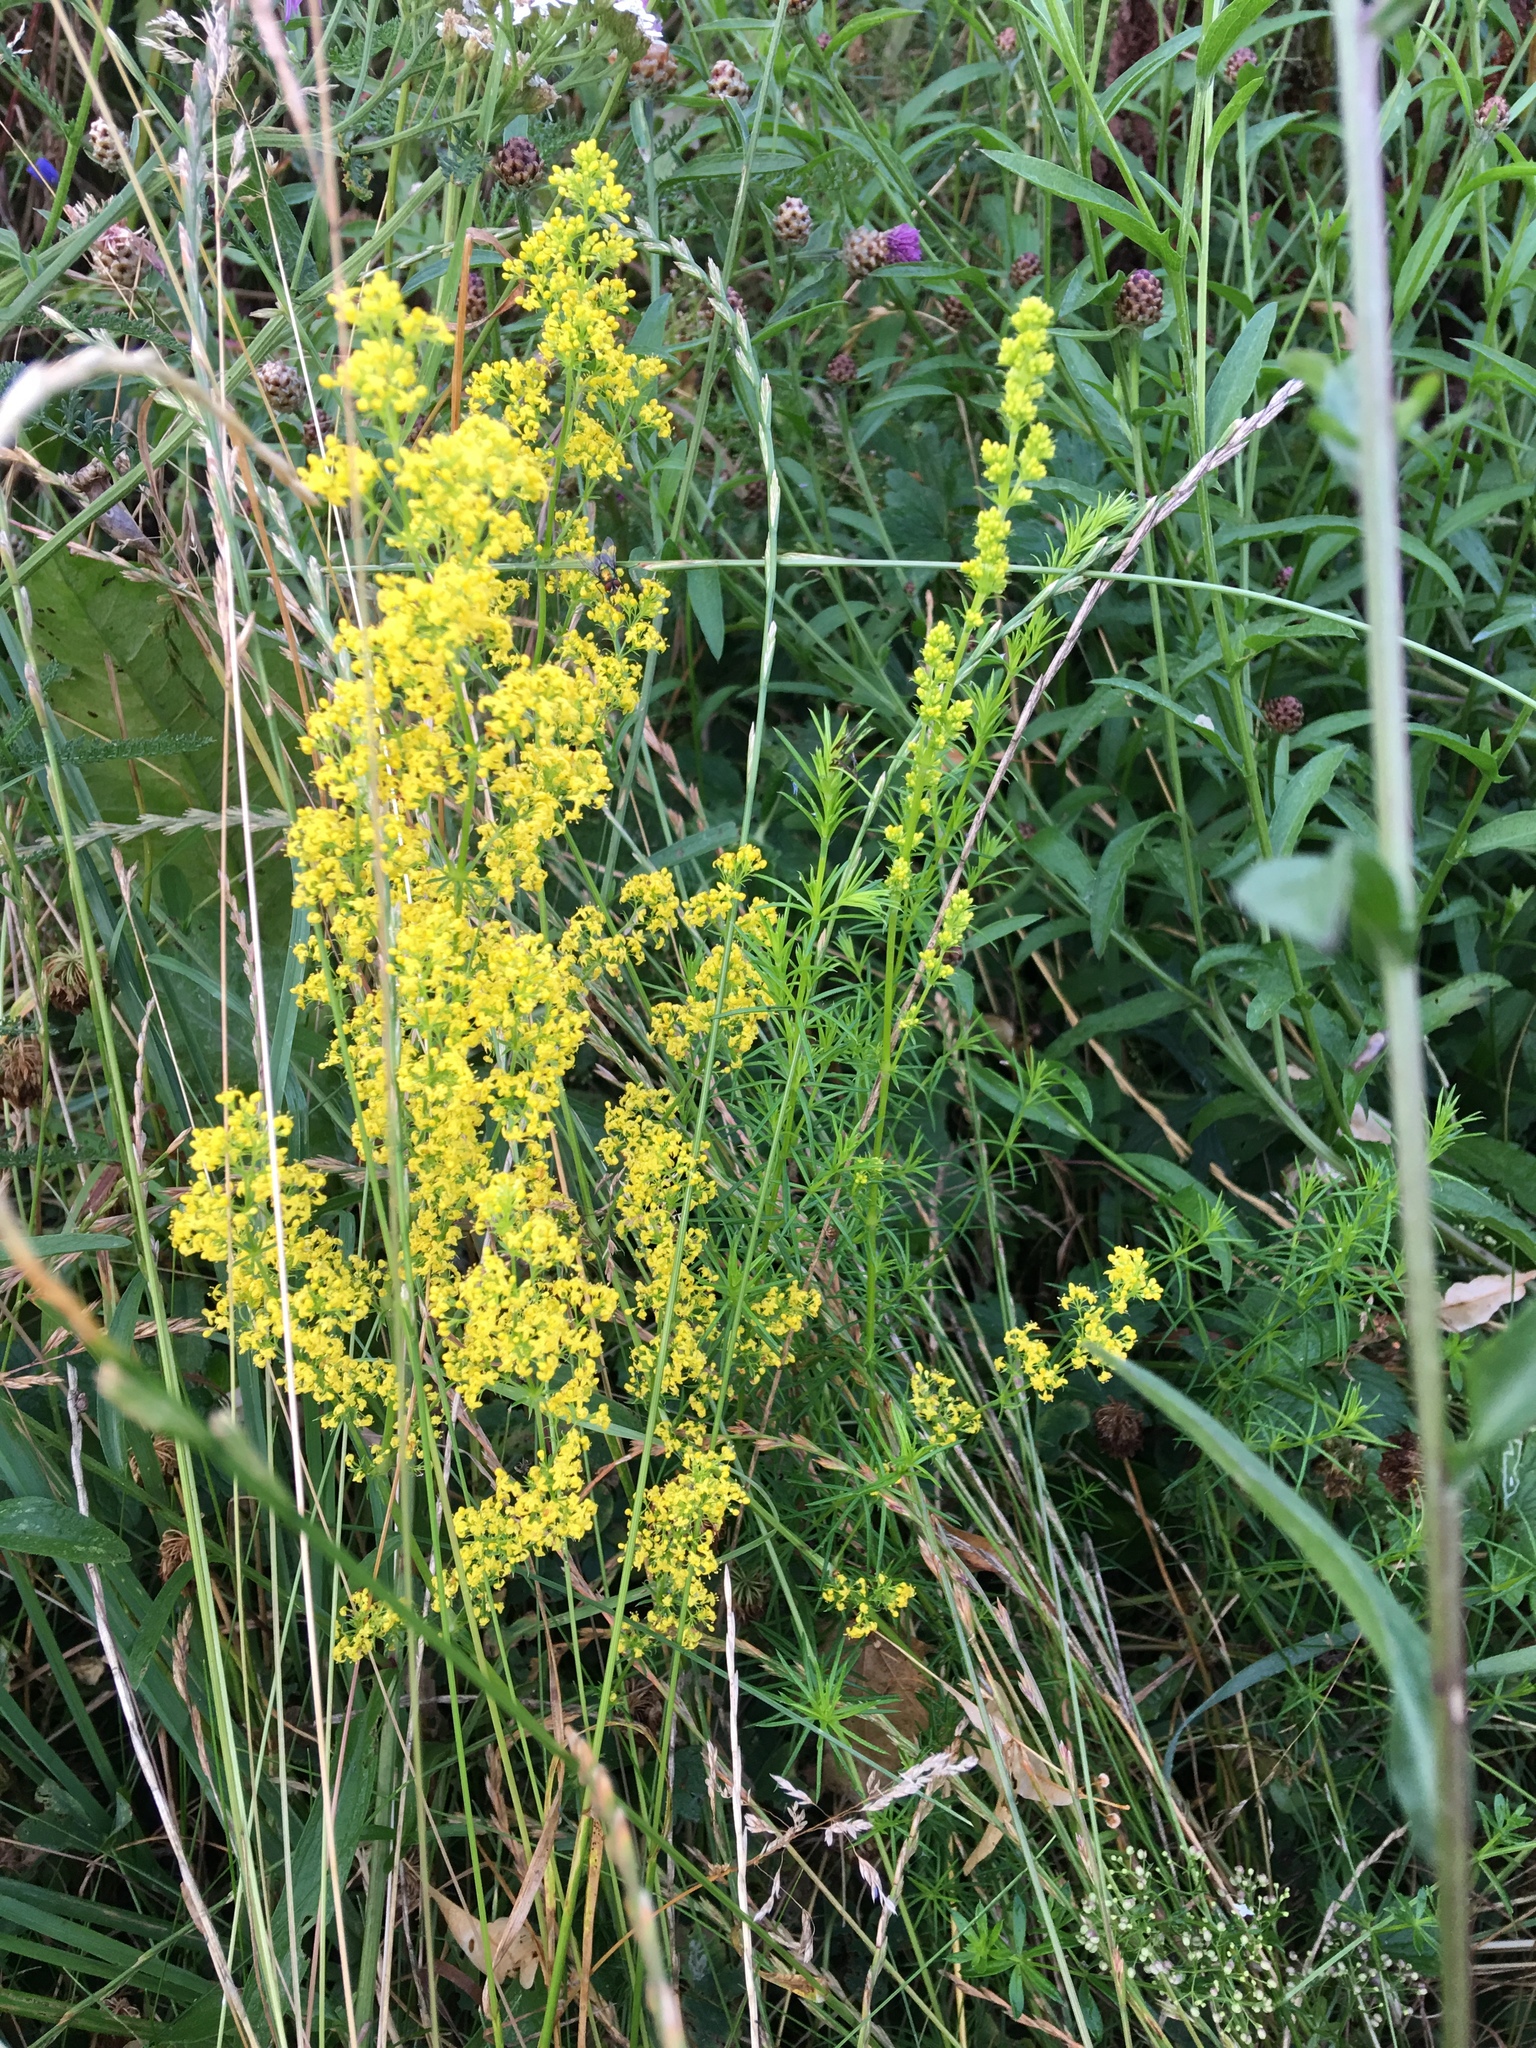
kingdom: Plantae
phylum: Tracheophyta
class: Magnoliopsida
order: Gentianales
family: Rubiaceae
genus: Galium
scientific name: Galium verum
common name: Lady's bedstraw
